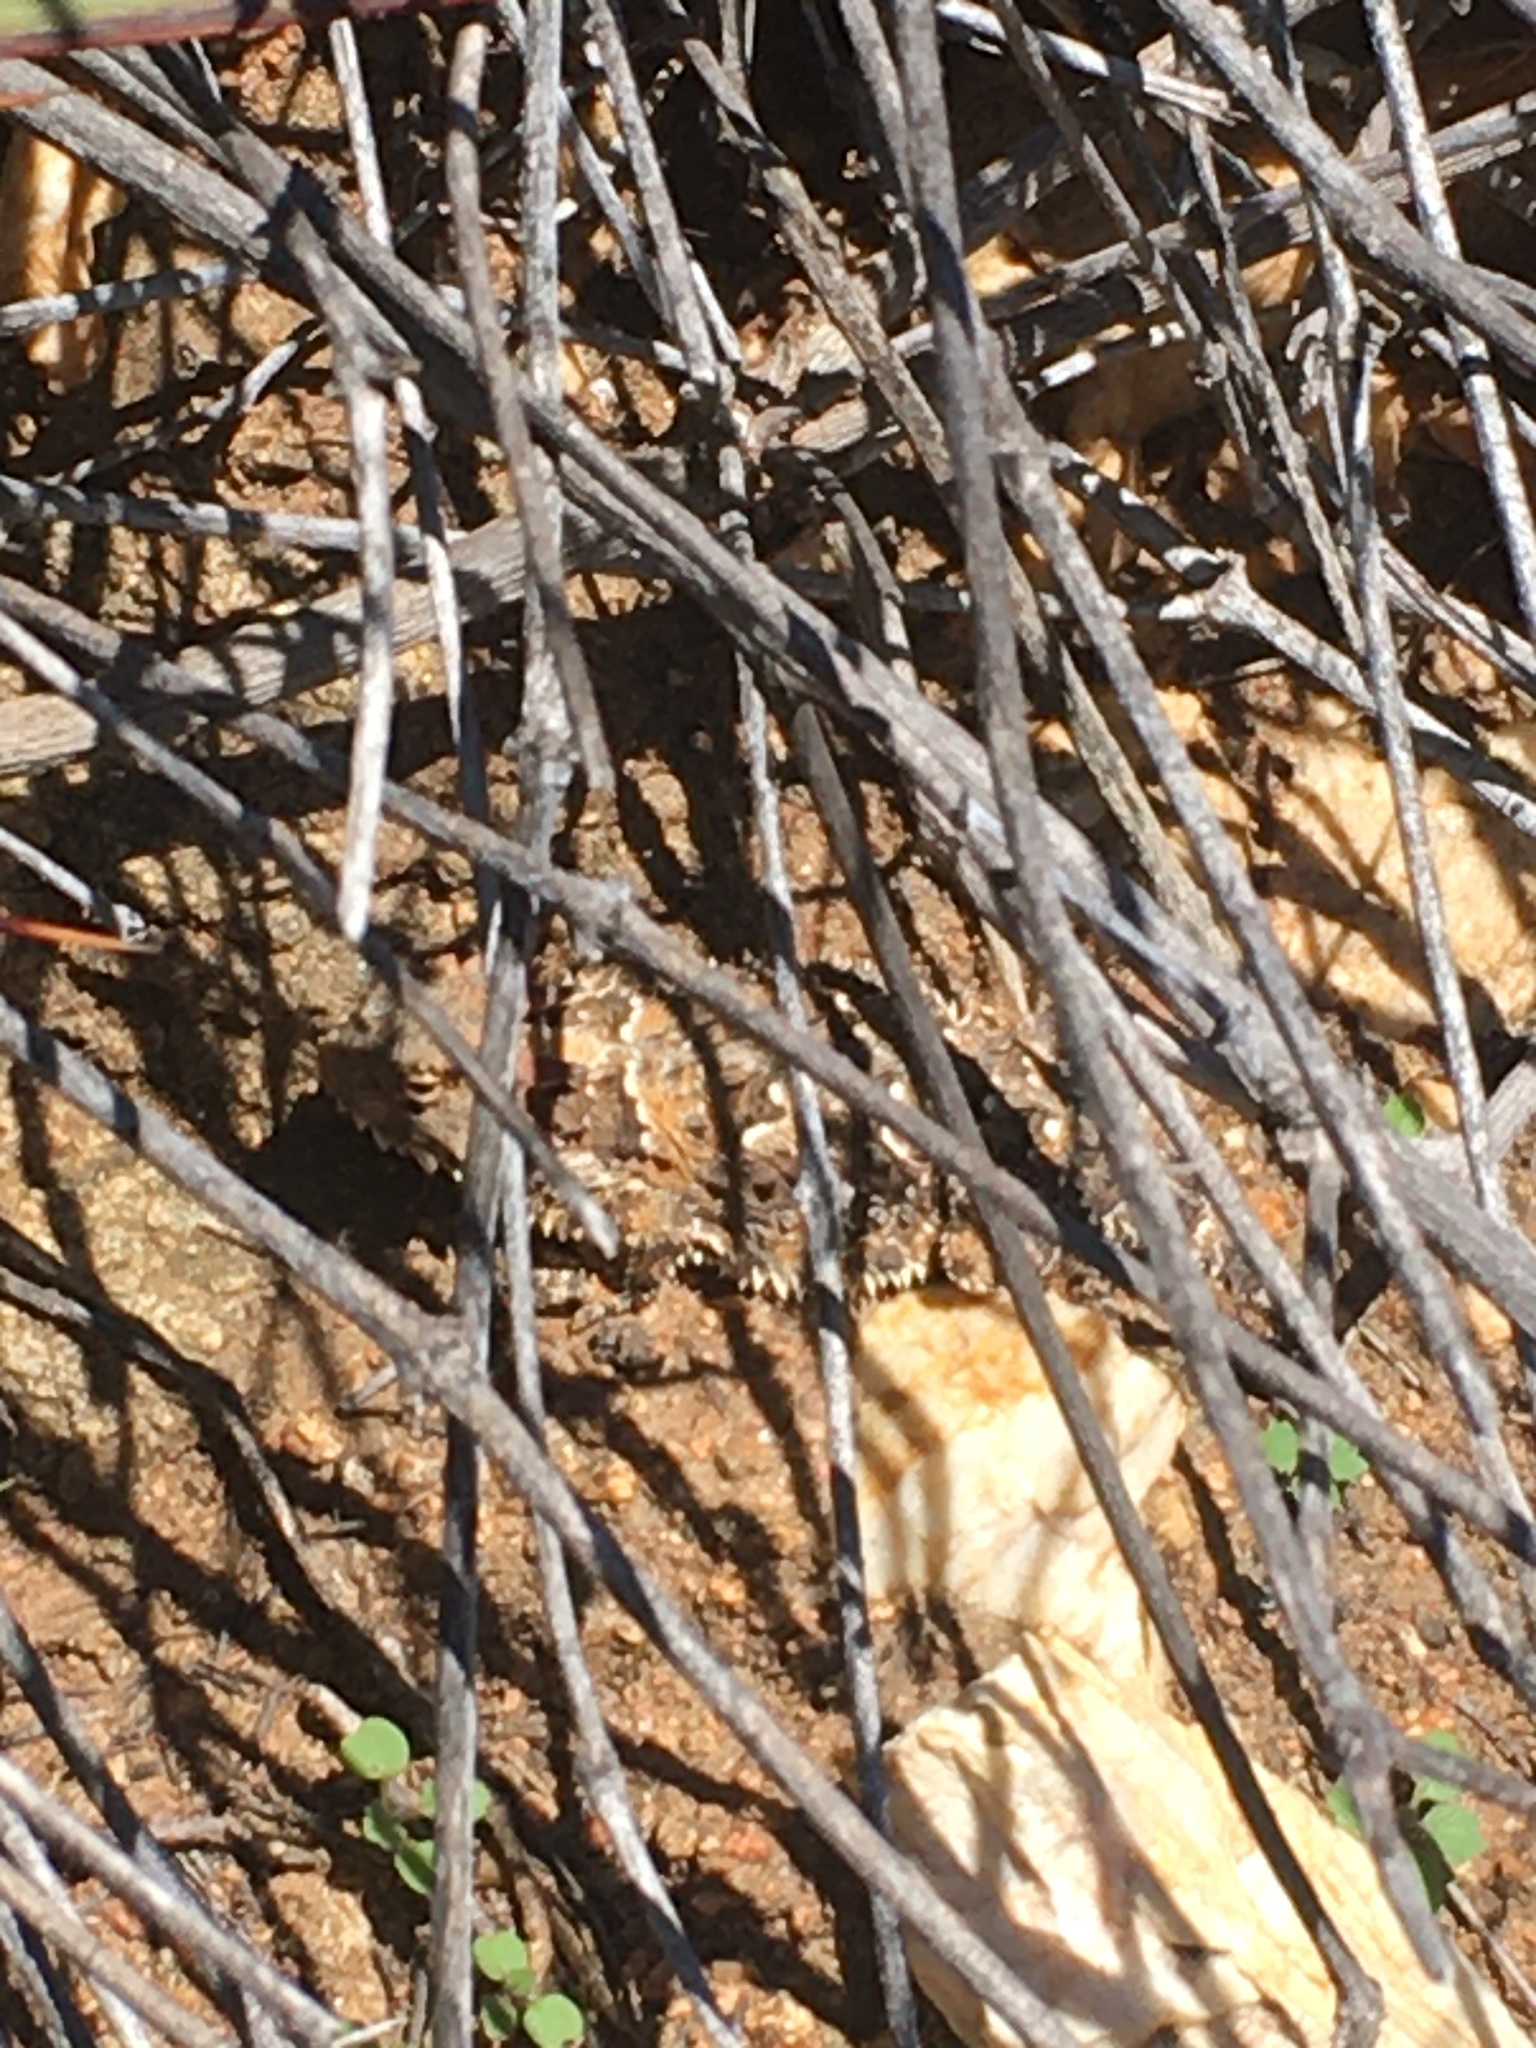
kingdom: Animalia
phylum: Chordata
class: Squamata
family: Phrynosomatidae
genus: Phrynosoma
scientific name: Phrynosoma blainvillii
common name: San diego horned lizard
